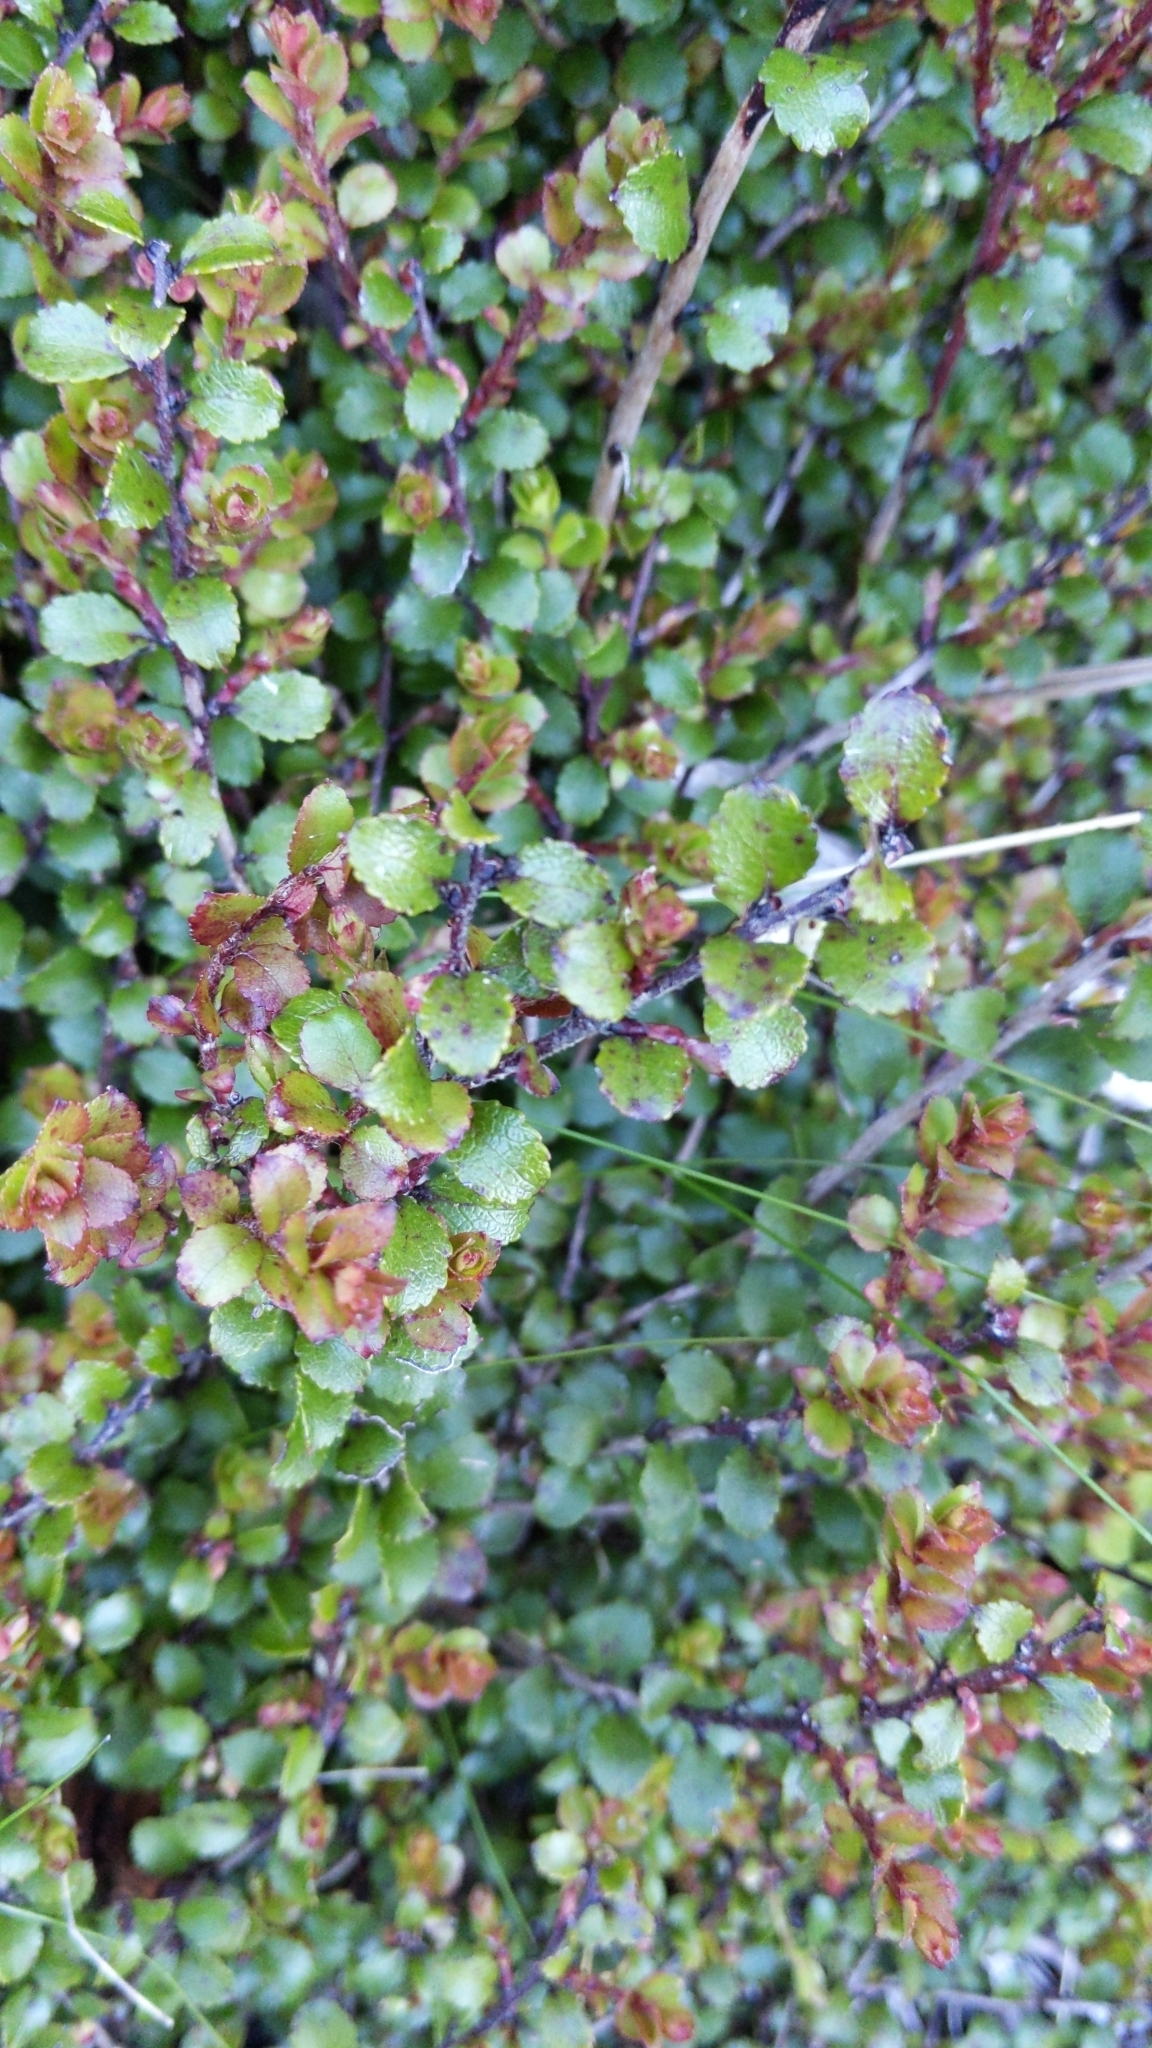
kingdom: Plantae
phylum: Tracheophyta
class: Magnoliopsida
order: Ericales
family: Ericaceae
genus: Gaultheria
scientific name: Gaultheria antipoda
